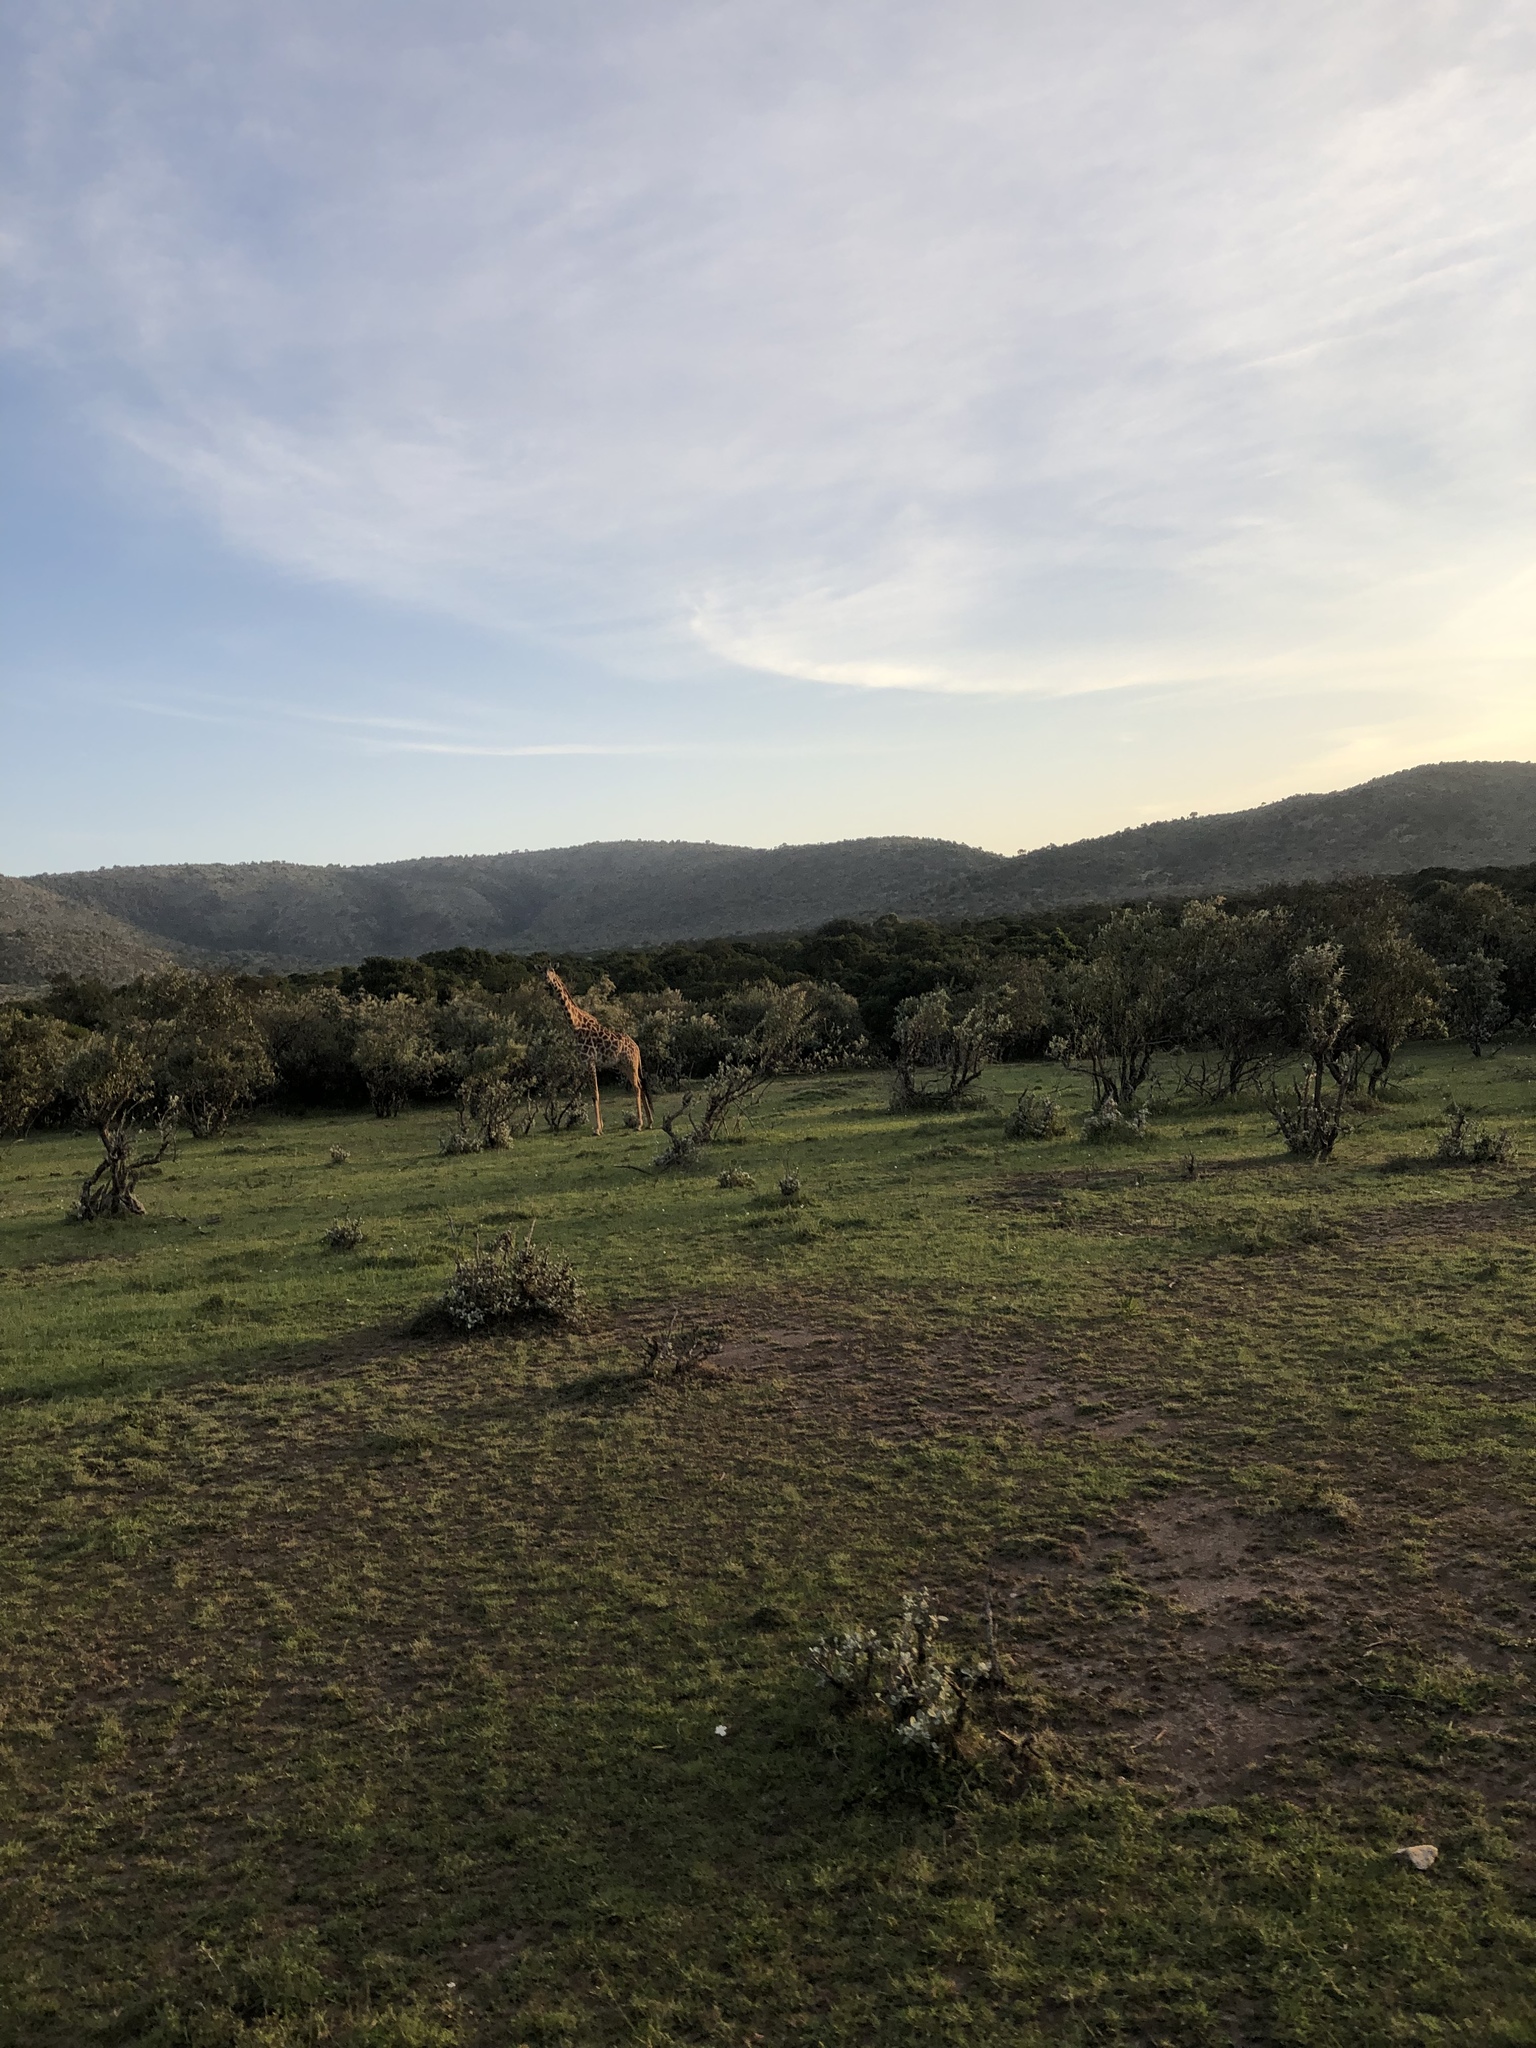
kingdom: Animalia
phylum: Chordata
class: Mammalia
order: Artiodactyla
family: Giraffidae
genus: Giraffa
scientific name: Giraffa tippelskirchi
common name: Masai giraffe
